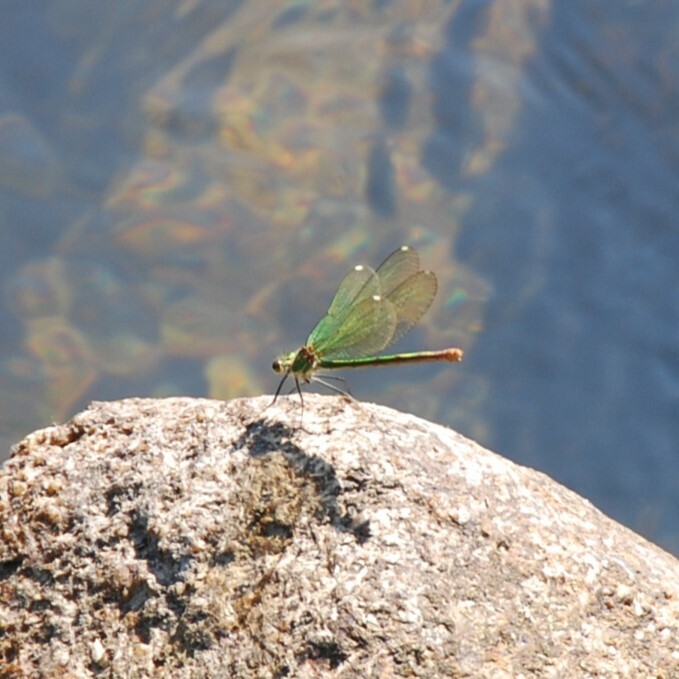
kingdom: Animalia
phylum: Arthropoda
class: Insecta
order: Odonata
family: Calopterygidae
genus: Calopteryx
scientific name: Calopteryx xanthostoma
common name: Western demoiselle
